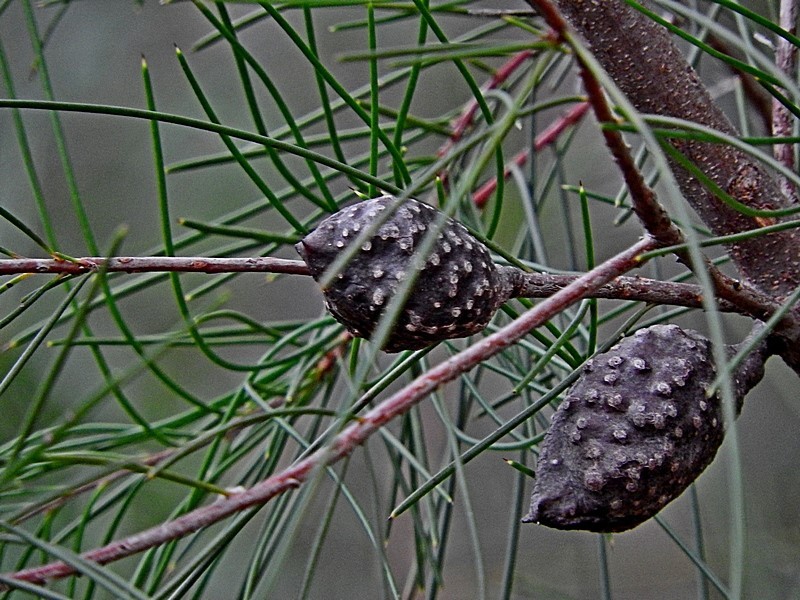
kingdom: Plantae
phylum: Tracheophyta
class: Magnoliopsida
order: Proteales
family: Proteaceae
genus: Hakea
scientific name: Hakea macraeana
